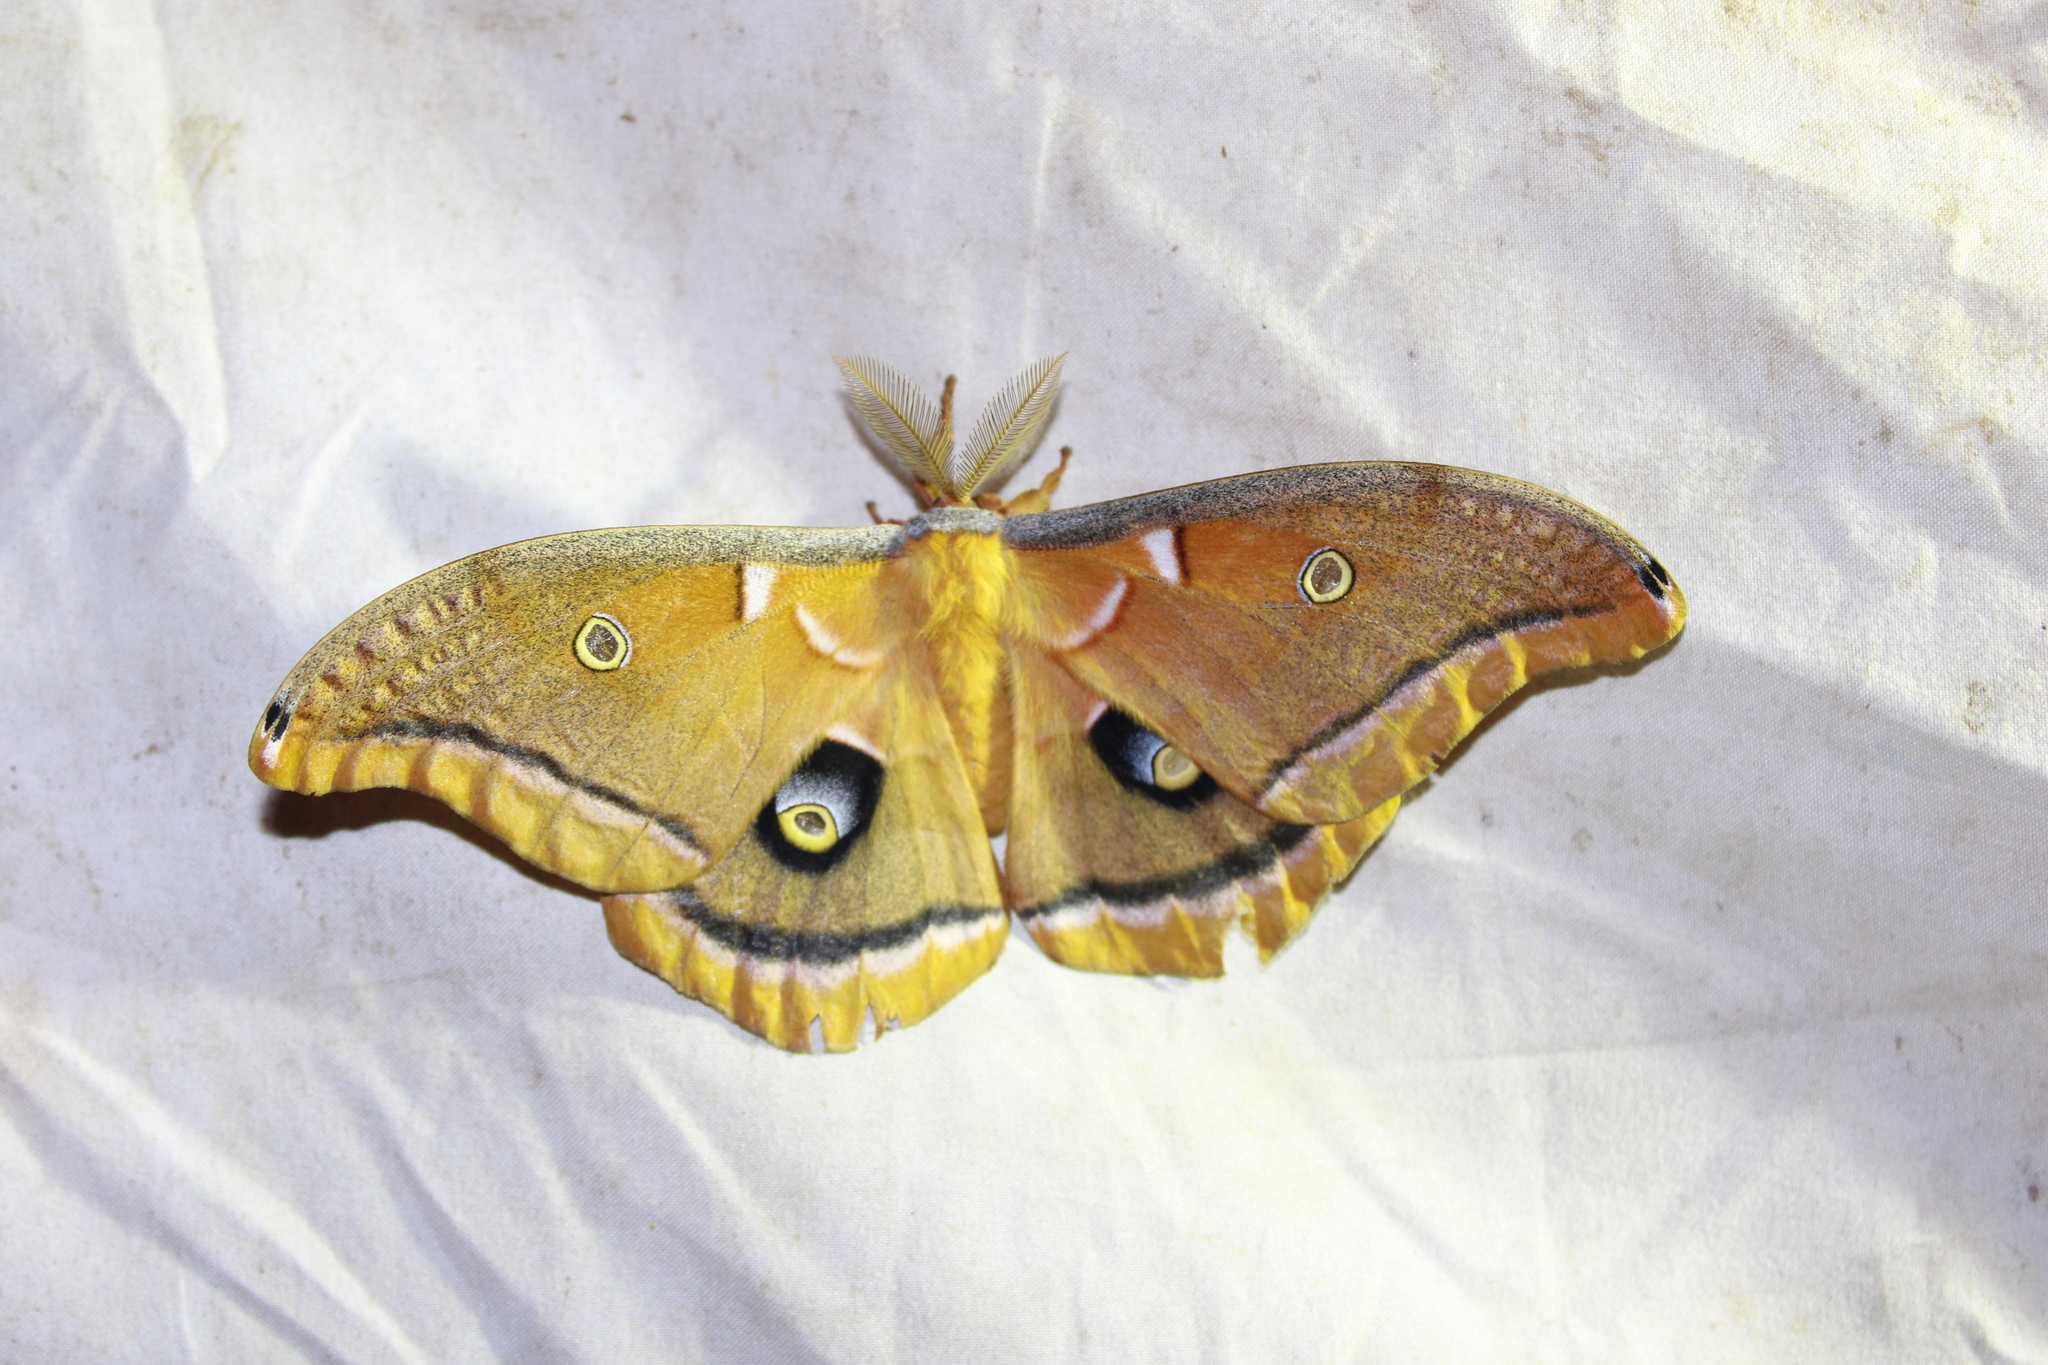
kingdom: Animalia
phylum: Arthropoda
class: Insecta
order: Lepidoptera
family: Saturniidae
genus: Antheraea
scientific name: Antheraea polyphemus
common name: Polyphemus moth
